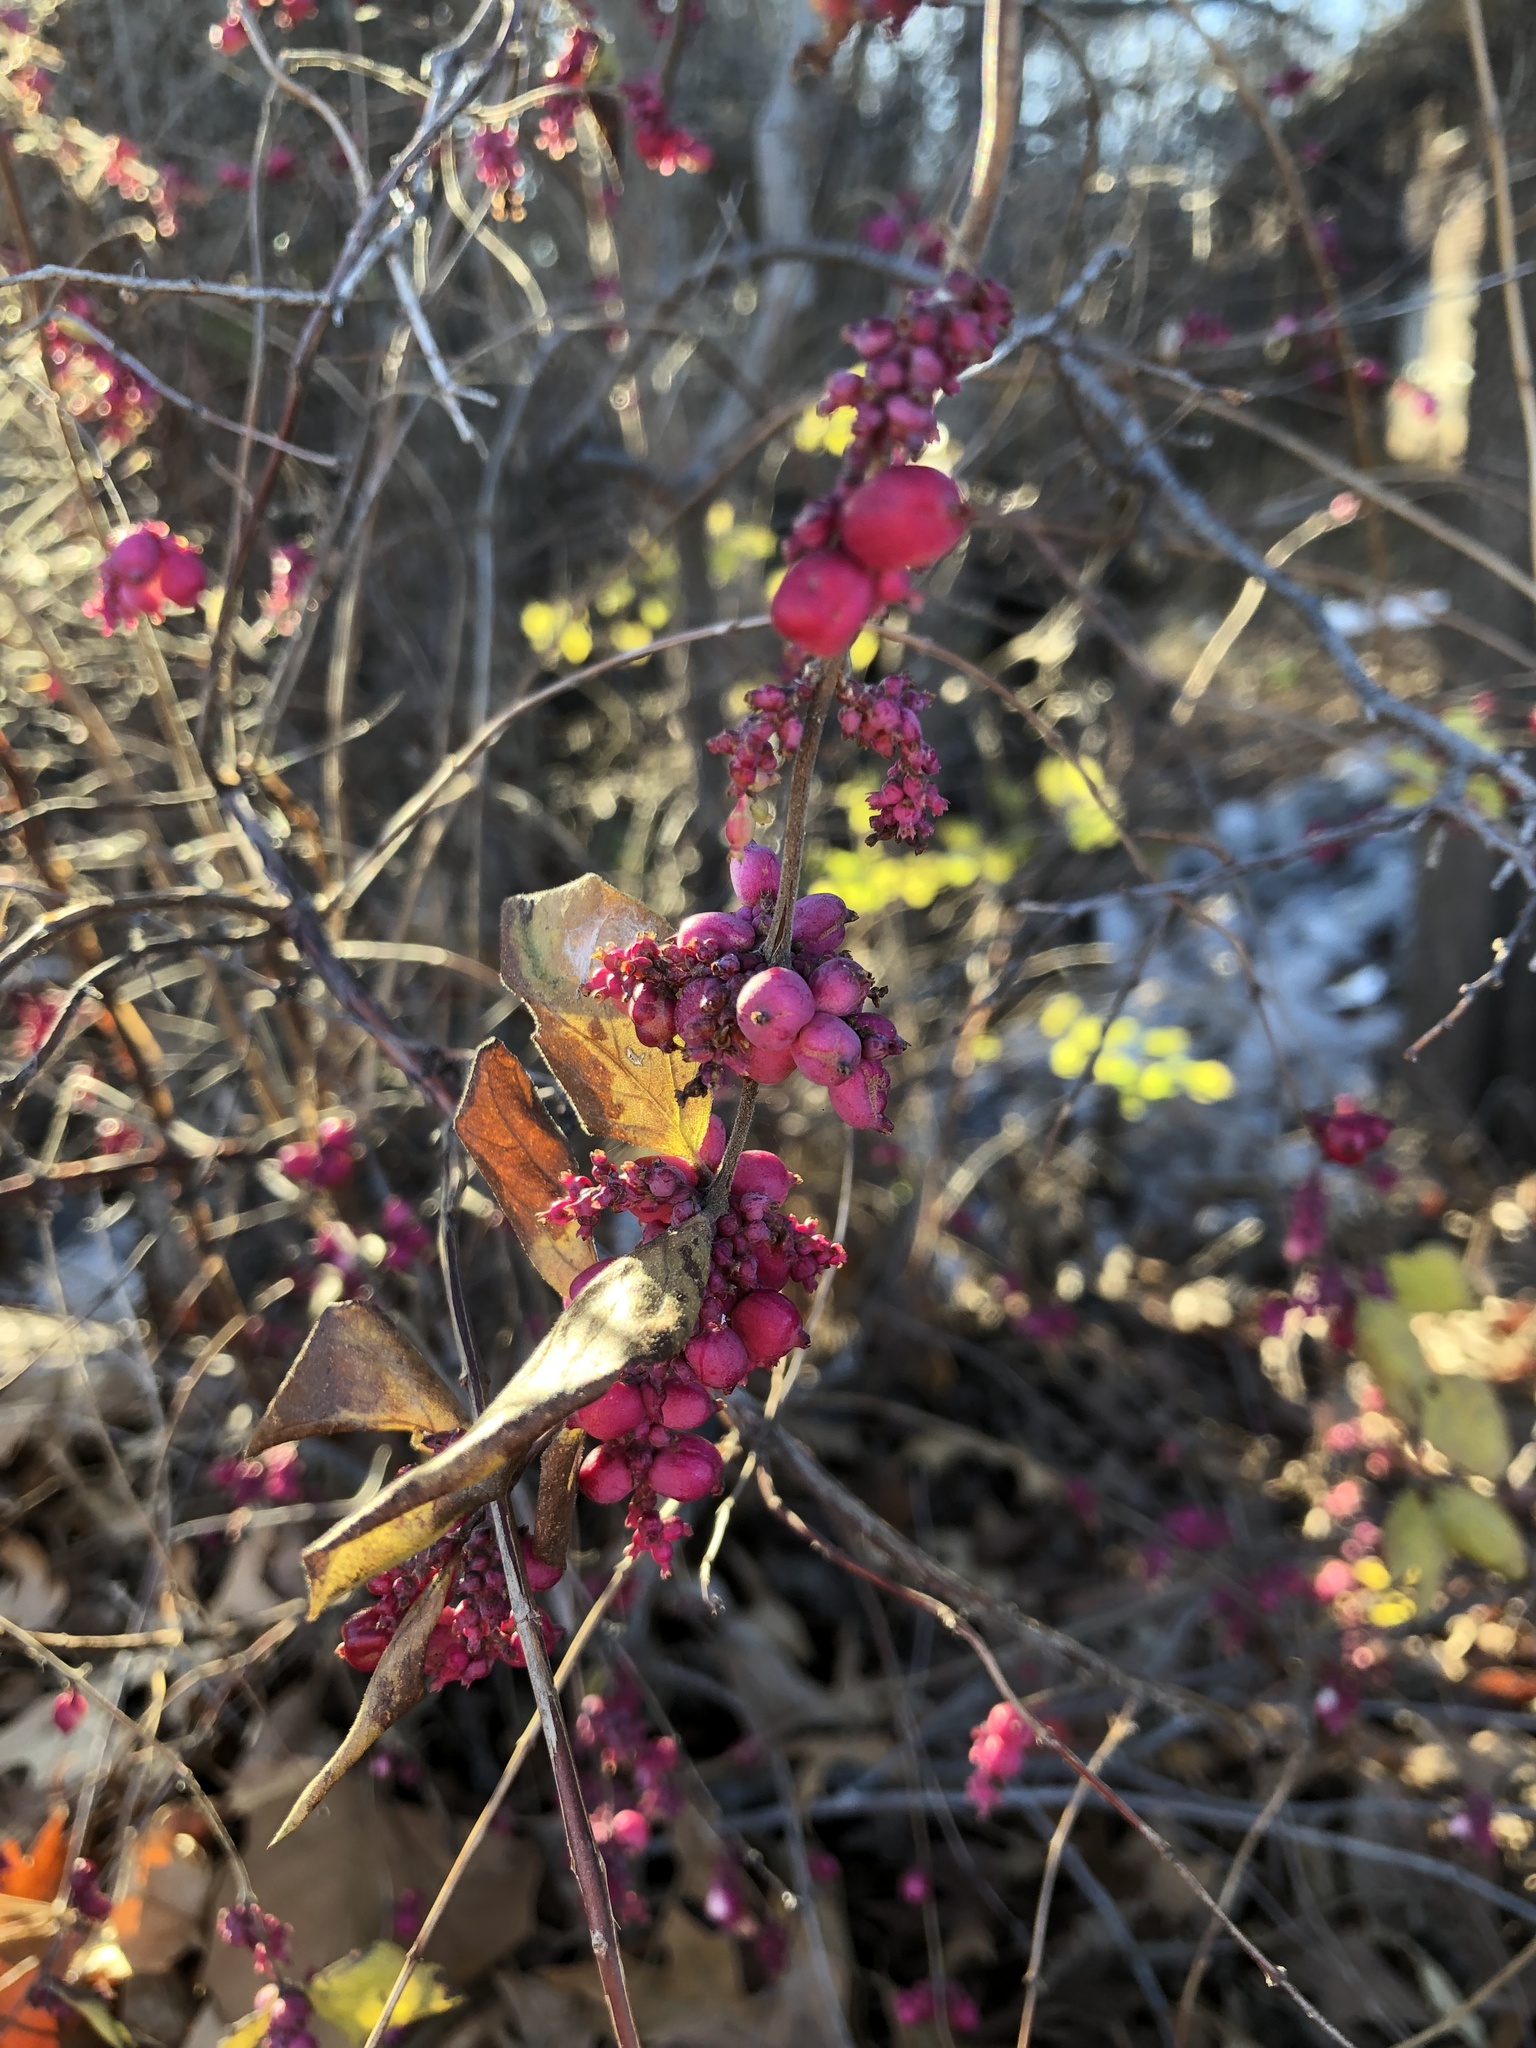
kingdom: Plantae
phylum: Tracheophyta
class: Magnoliopsida
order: Dipsacales
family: Caprifoliaceae
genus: Symphoricarpos
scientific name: Symphoricarpos orbiculatus
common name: Coralberry
